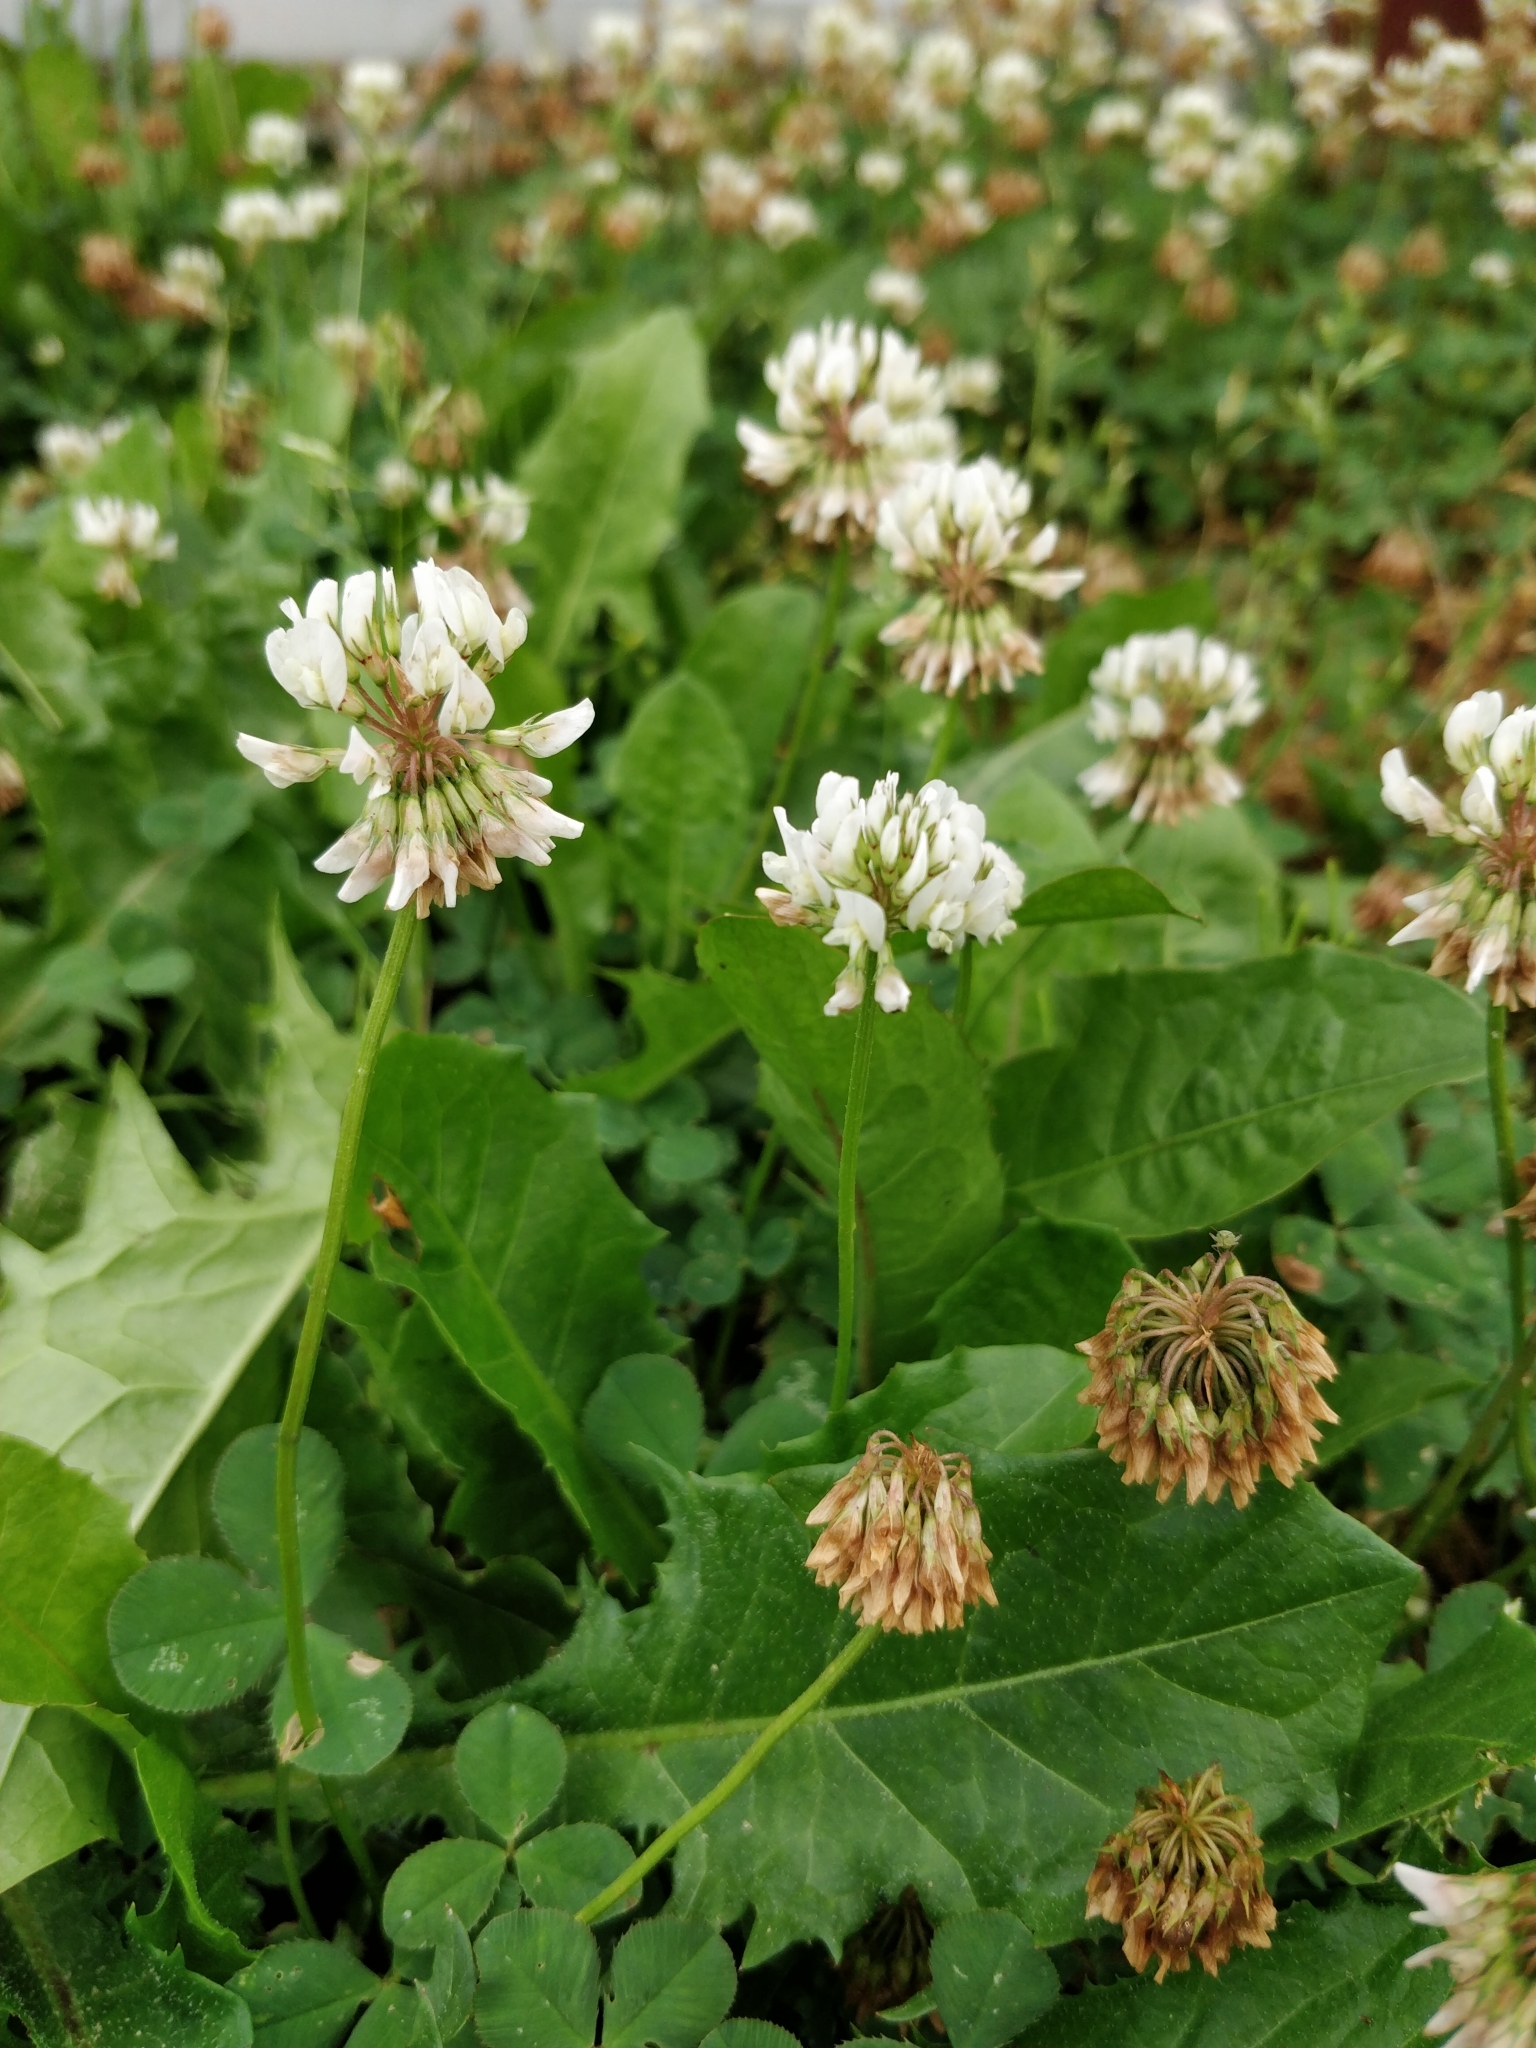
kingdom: Plantae
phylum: Tracheophyta
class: Magnoliopsida
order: Fabales
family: Fabaceae
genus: Trifolium
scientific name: Trifolium repens
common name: White clover
